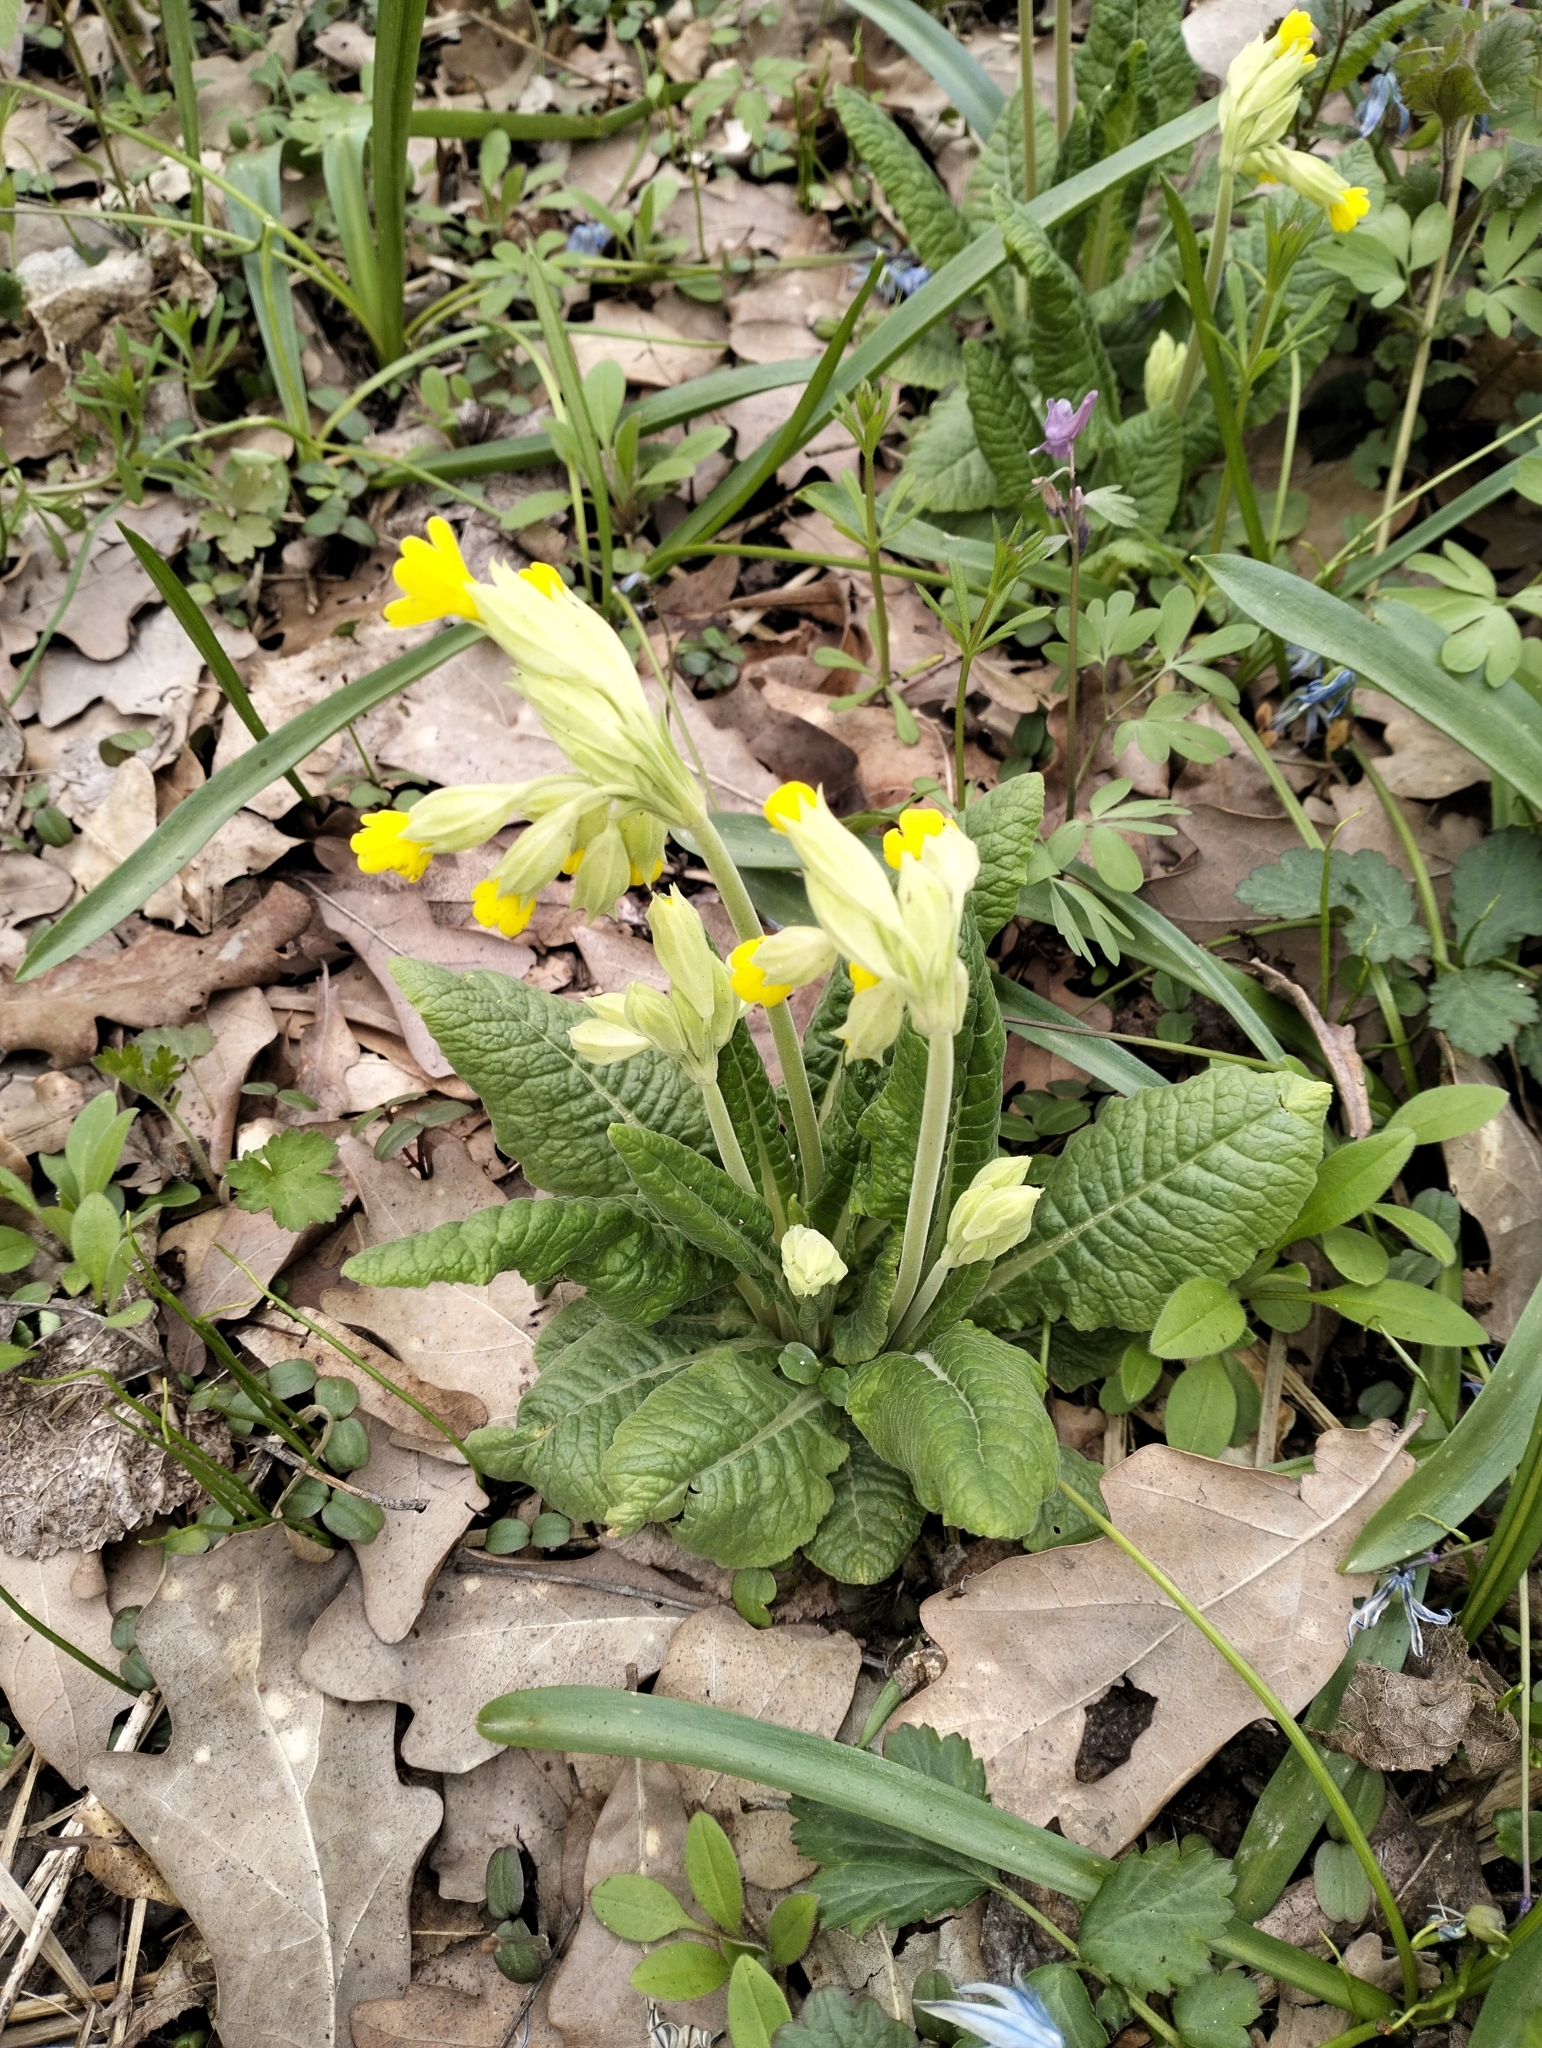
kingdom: Plantae
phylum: Tracheophyta
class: Magnoliopsida
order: Ericales
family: Primulaceae
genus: Primula
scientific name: Primula veris
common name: Cowslip
